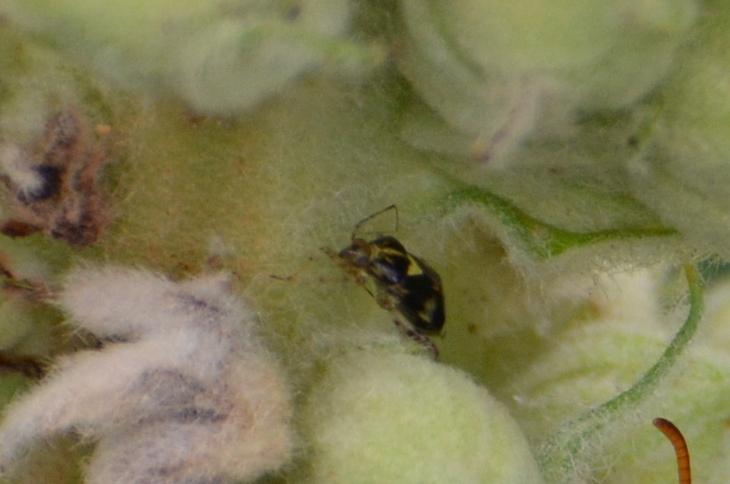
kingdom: Animalia
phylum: Arthropoda
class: Insecta
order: Hemiptera
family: Miridae
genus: Liocoris
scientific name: Liocoris tripustulatus
